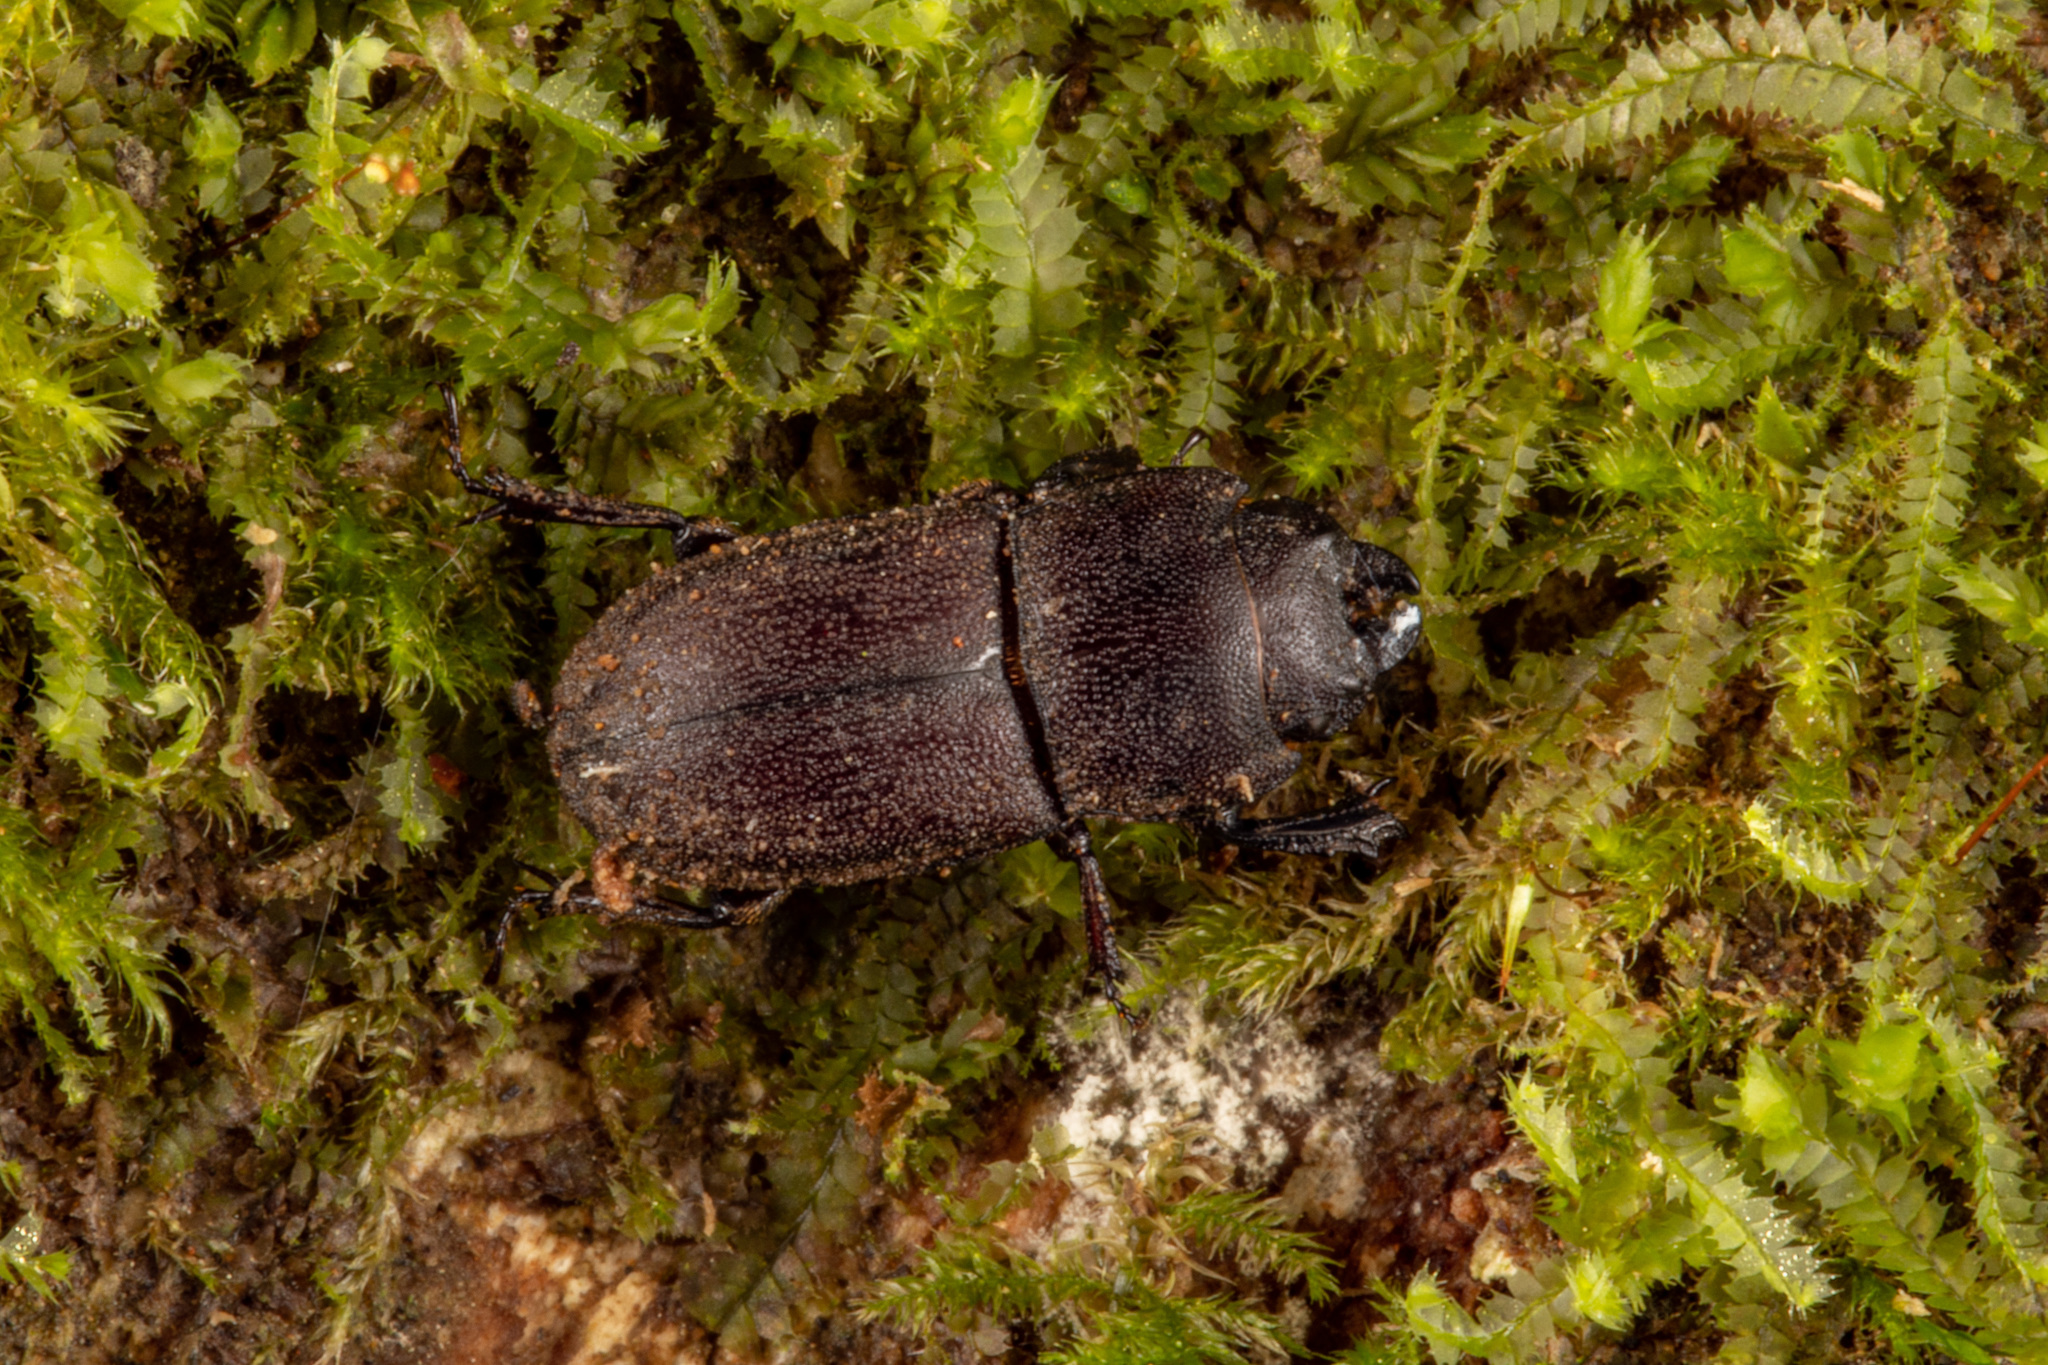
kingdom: Animalia
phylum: Arthropoda
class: Insecta
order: Coleoptera
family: Lucanidae
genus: Paralissotes
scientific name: Paralissotes stewarti
